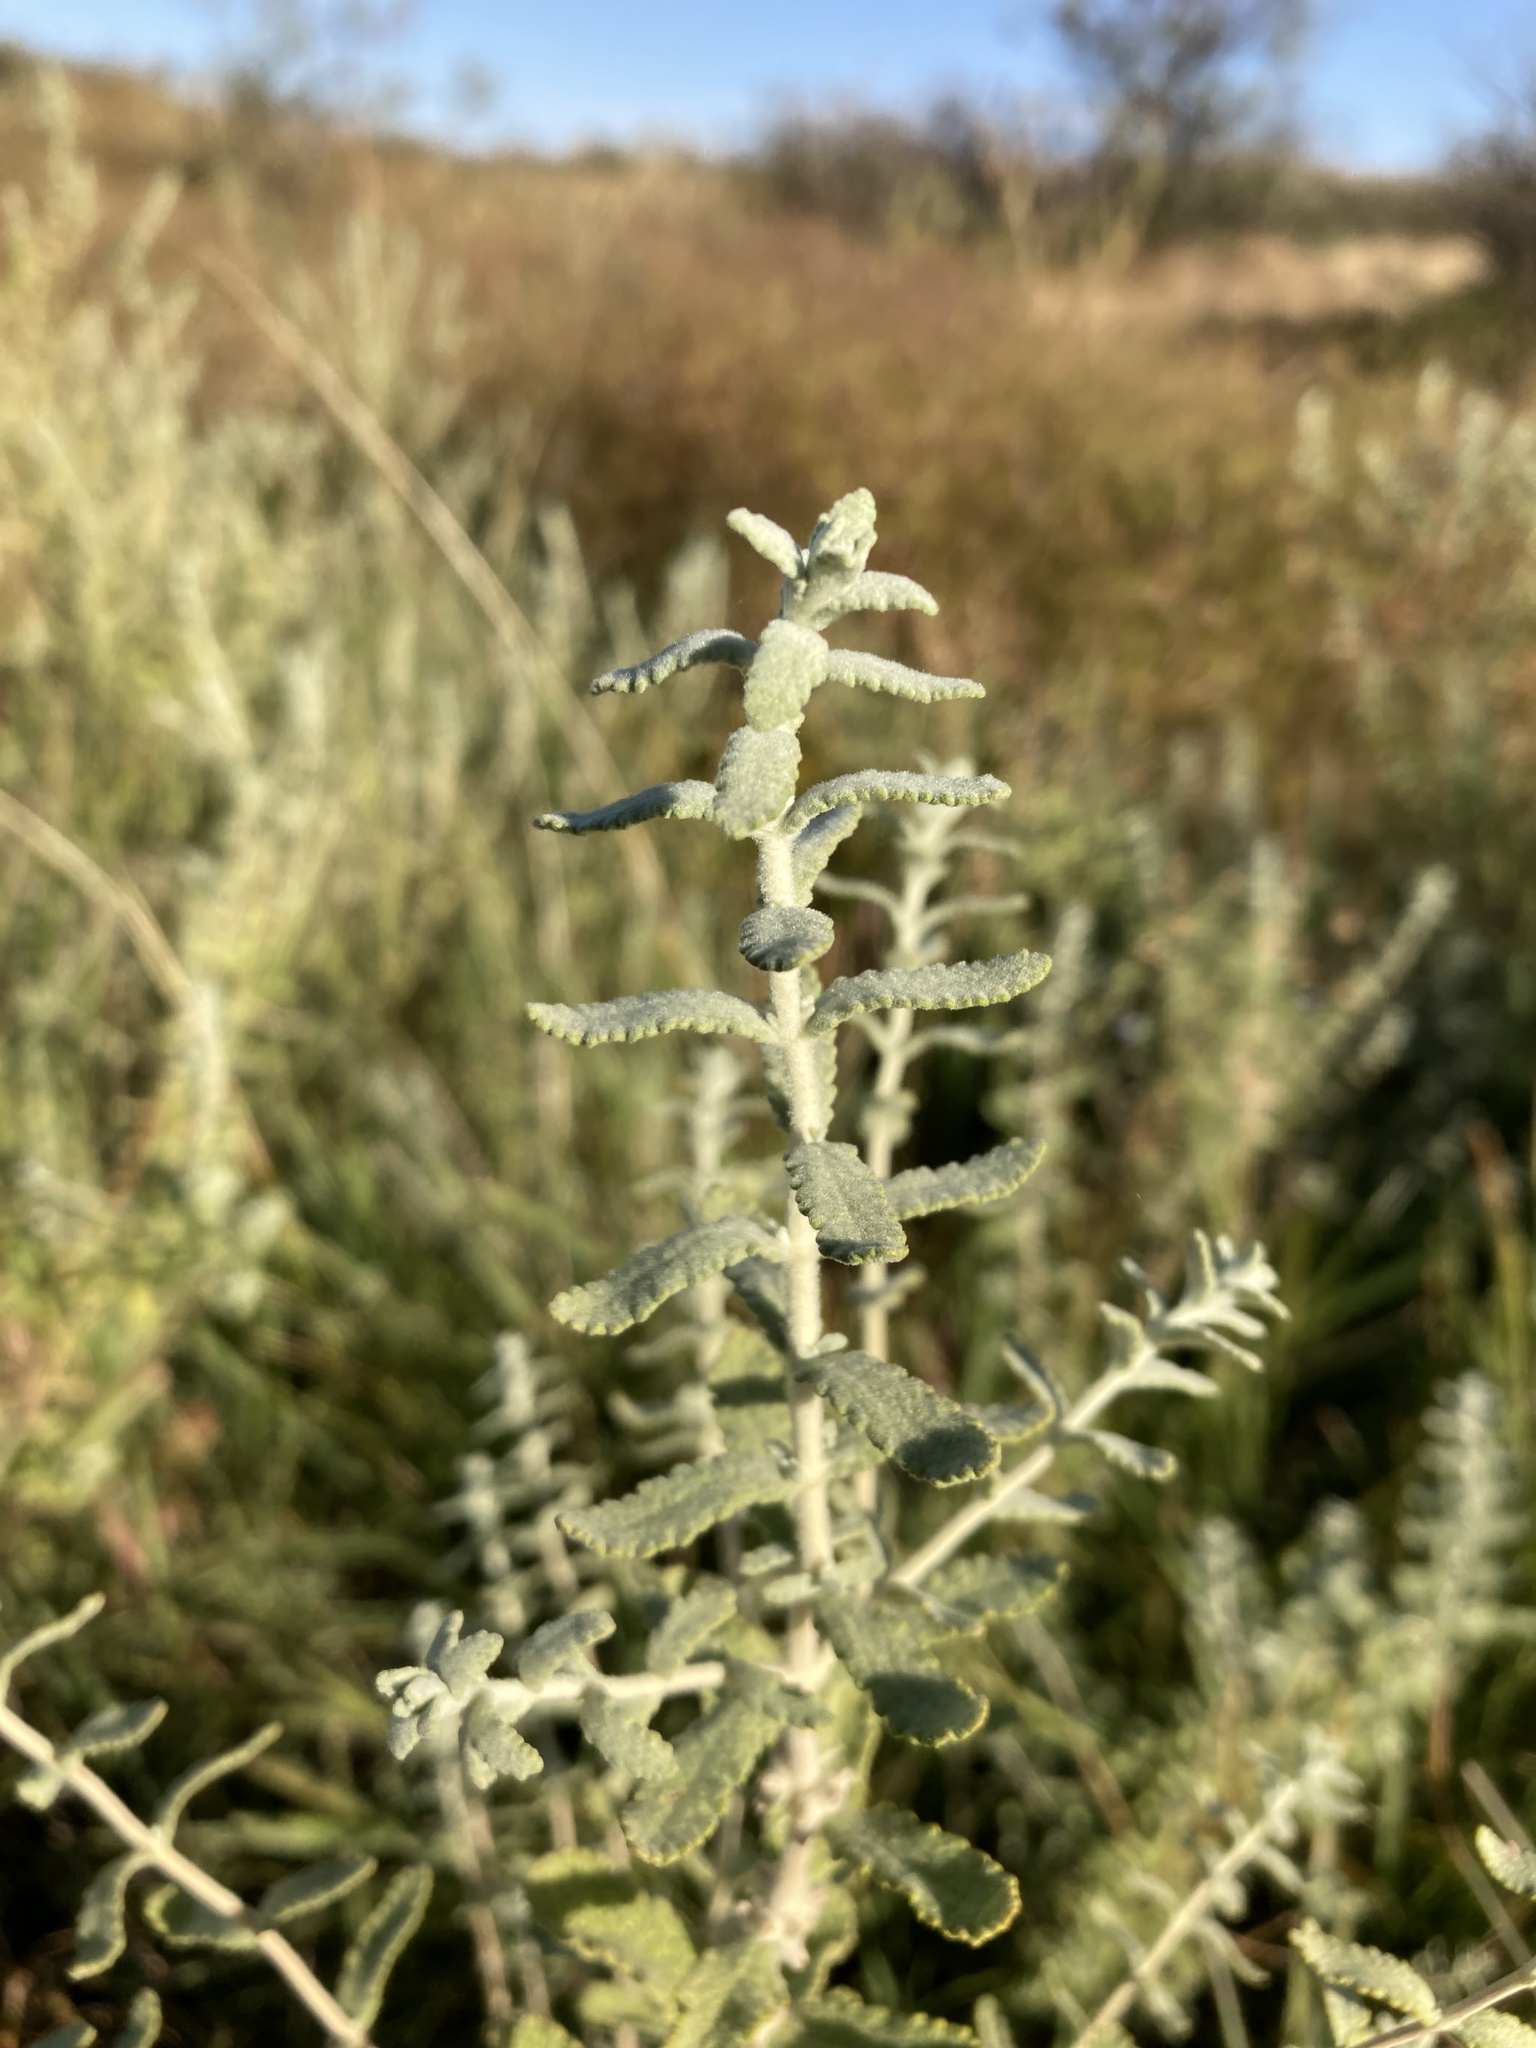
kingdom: Plantae
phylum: Tracheophyta
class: Magnoliopsida
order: Lamiales
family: Scrophulariaceae
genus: Buddleja
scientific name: Buddleja scordioides
